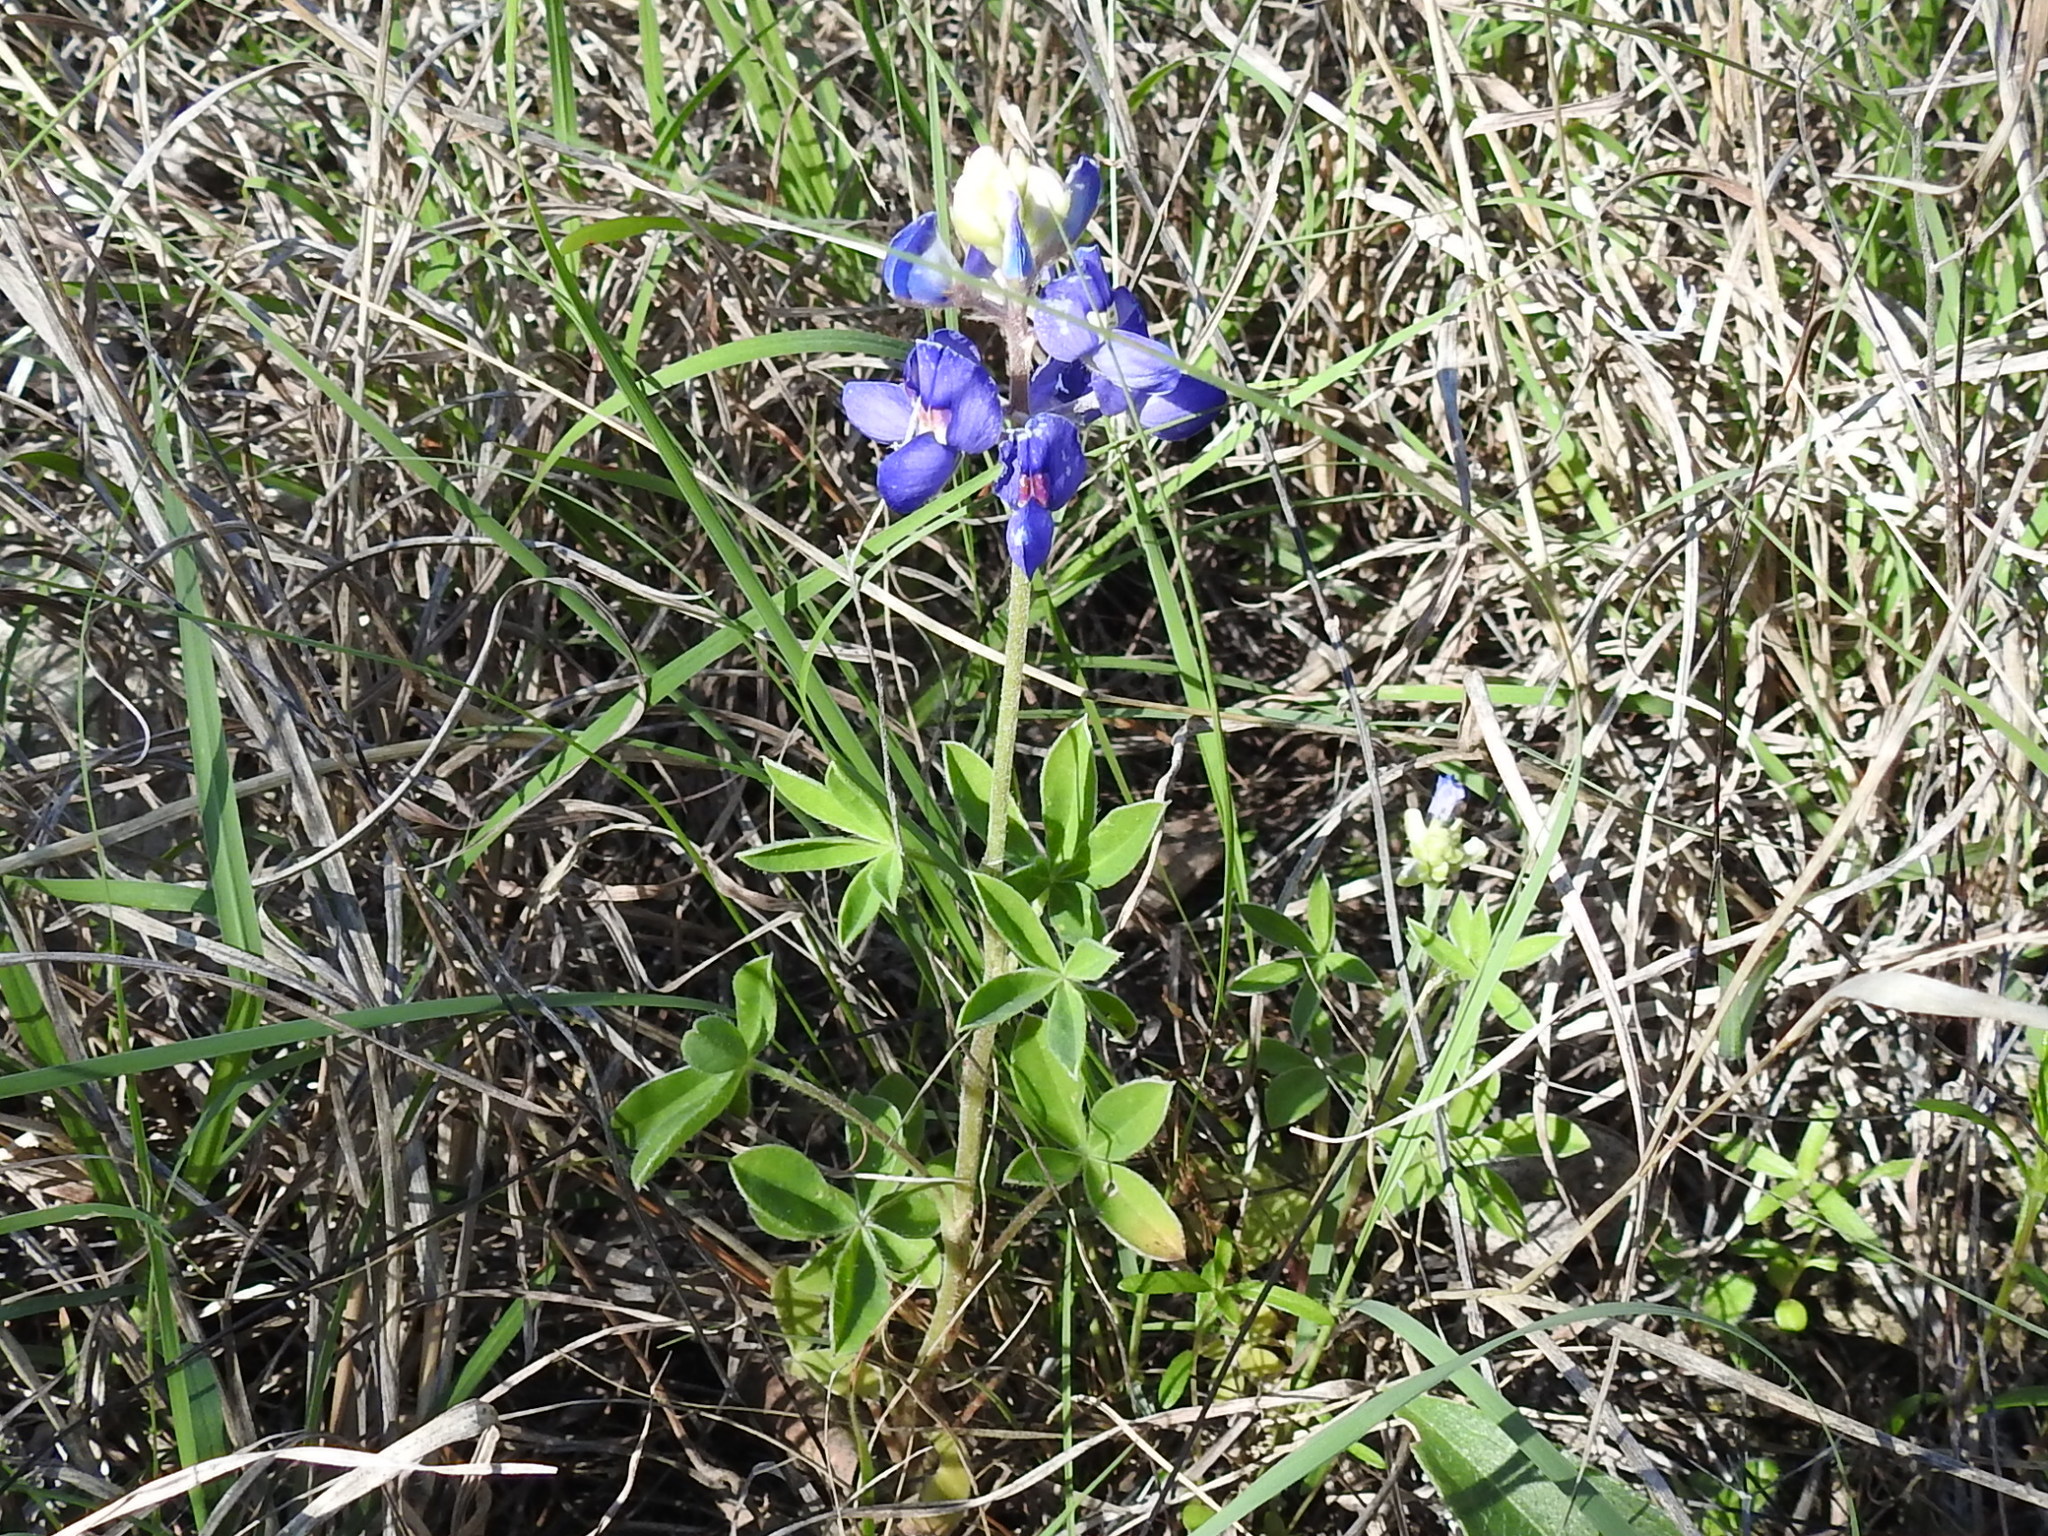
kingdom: Plantae
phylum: Tracheophyta
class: Magnoliopsida
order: Fabales
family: Fabaceae
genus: Lupinus
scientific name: Lupinus texensis
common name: Texas bluebonnet
